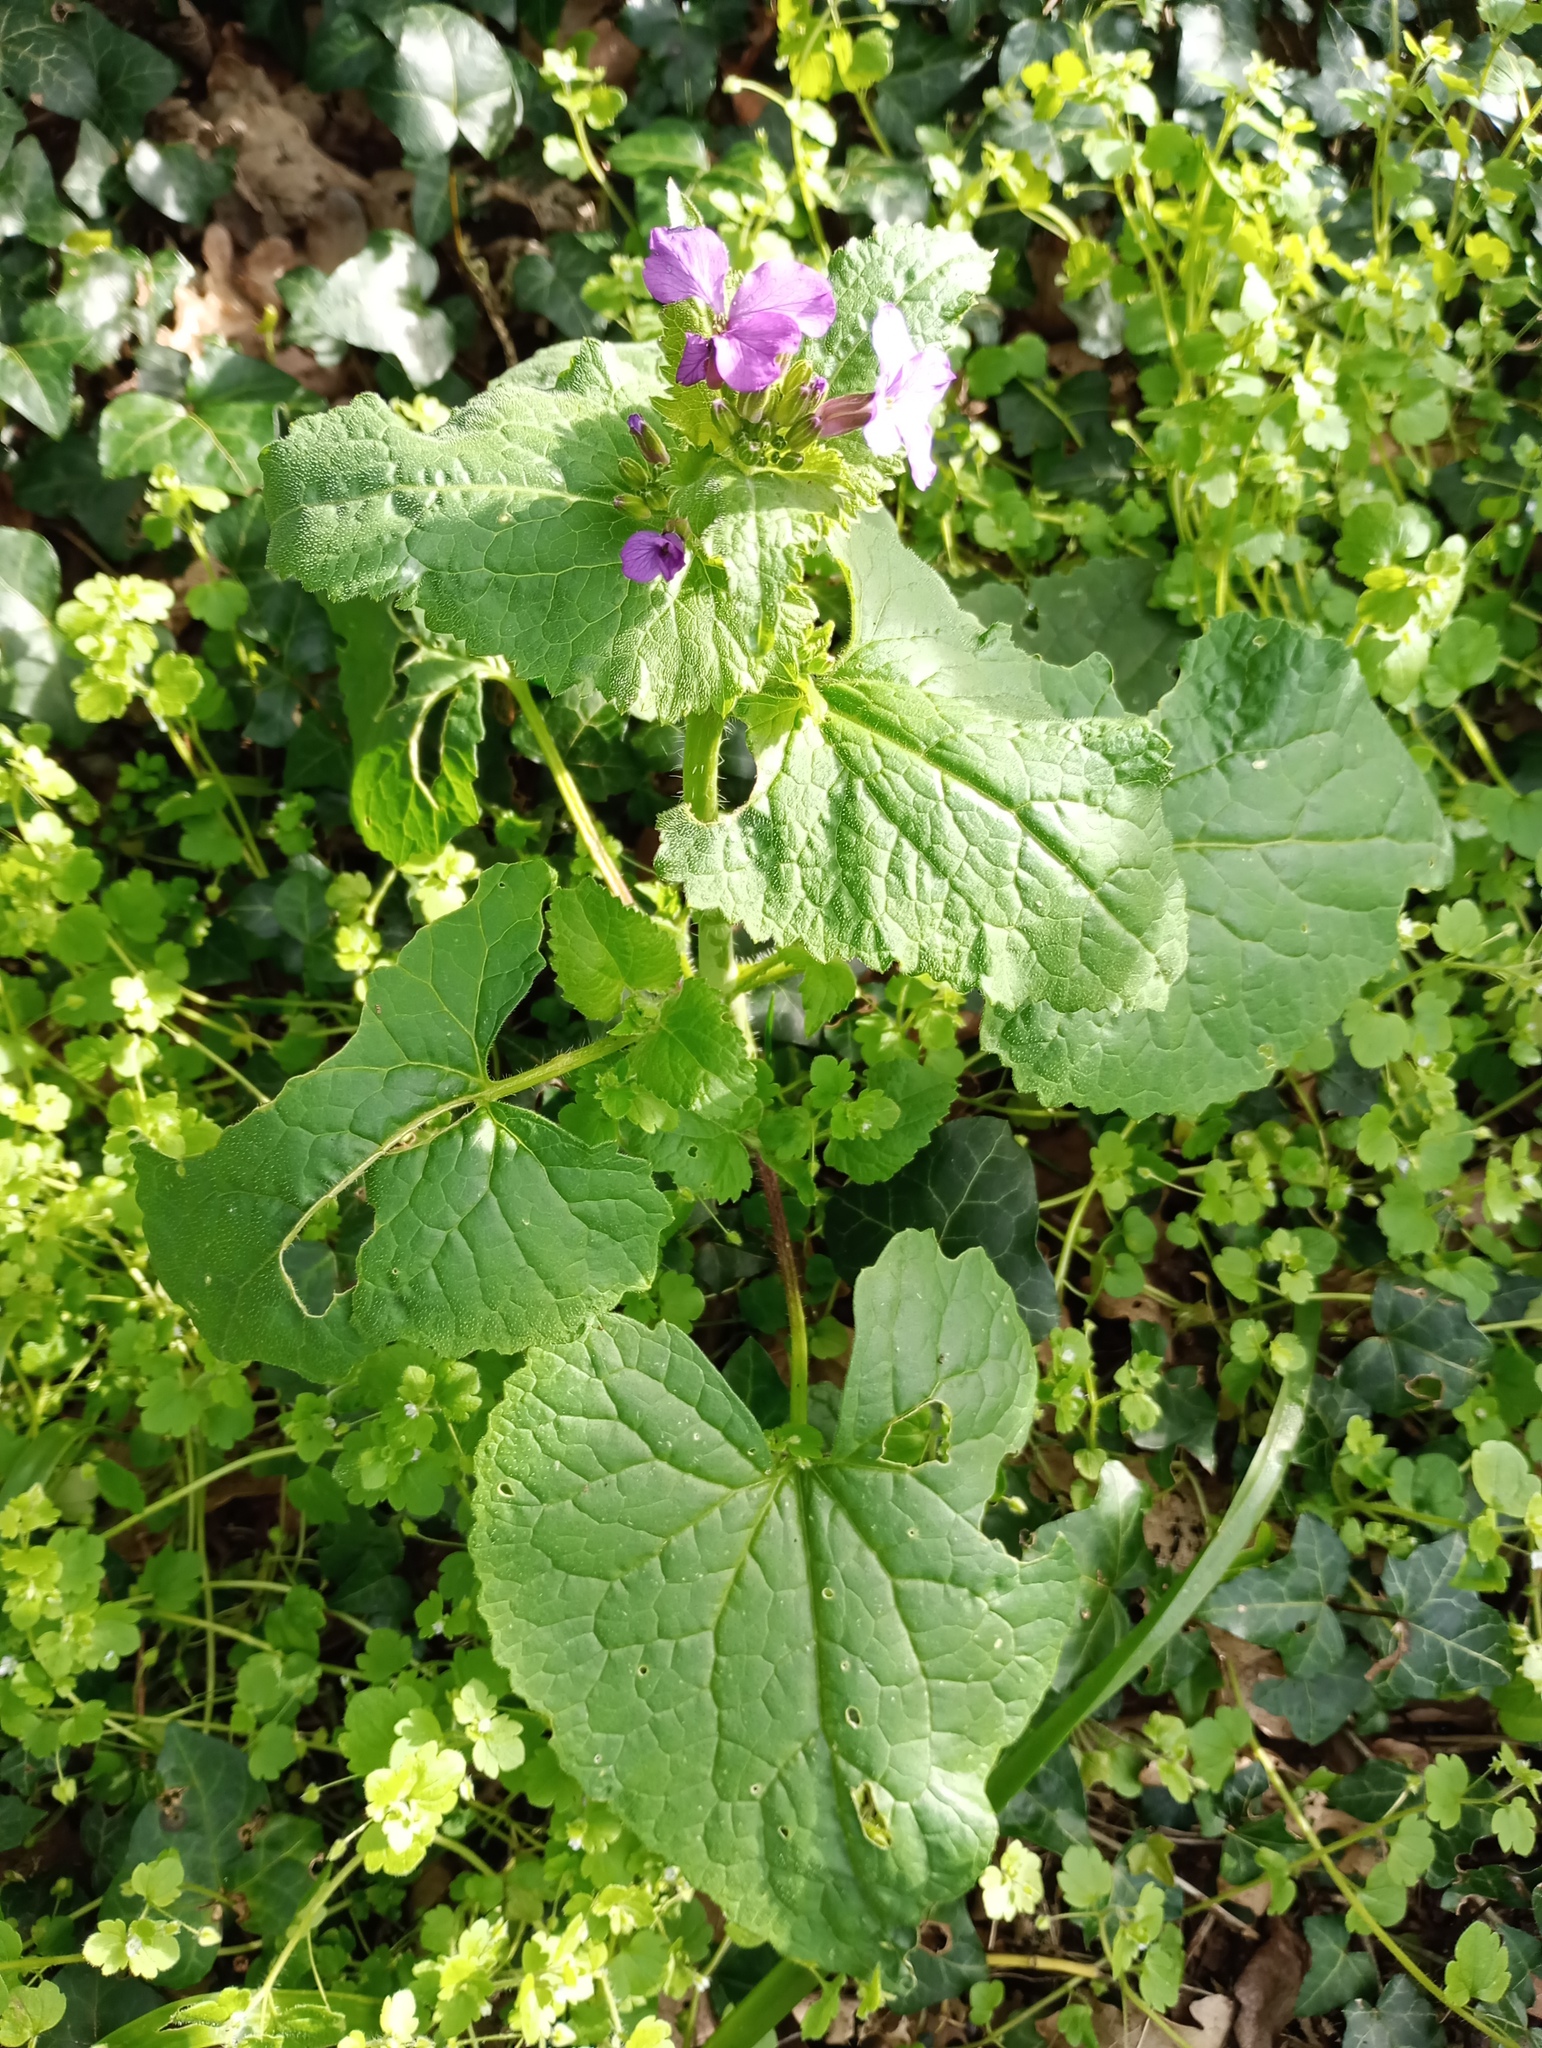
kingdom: Plantae
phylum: Tracheophyta
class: Magnoliopsida
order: Brassicales
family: Brassicaceae
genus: Lunaria
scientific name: Lunaria annua
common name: Honesty
